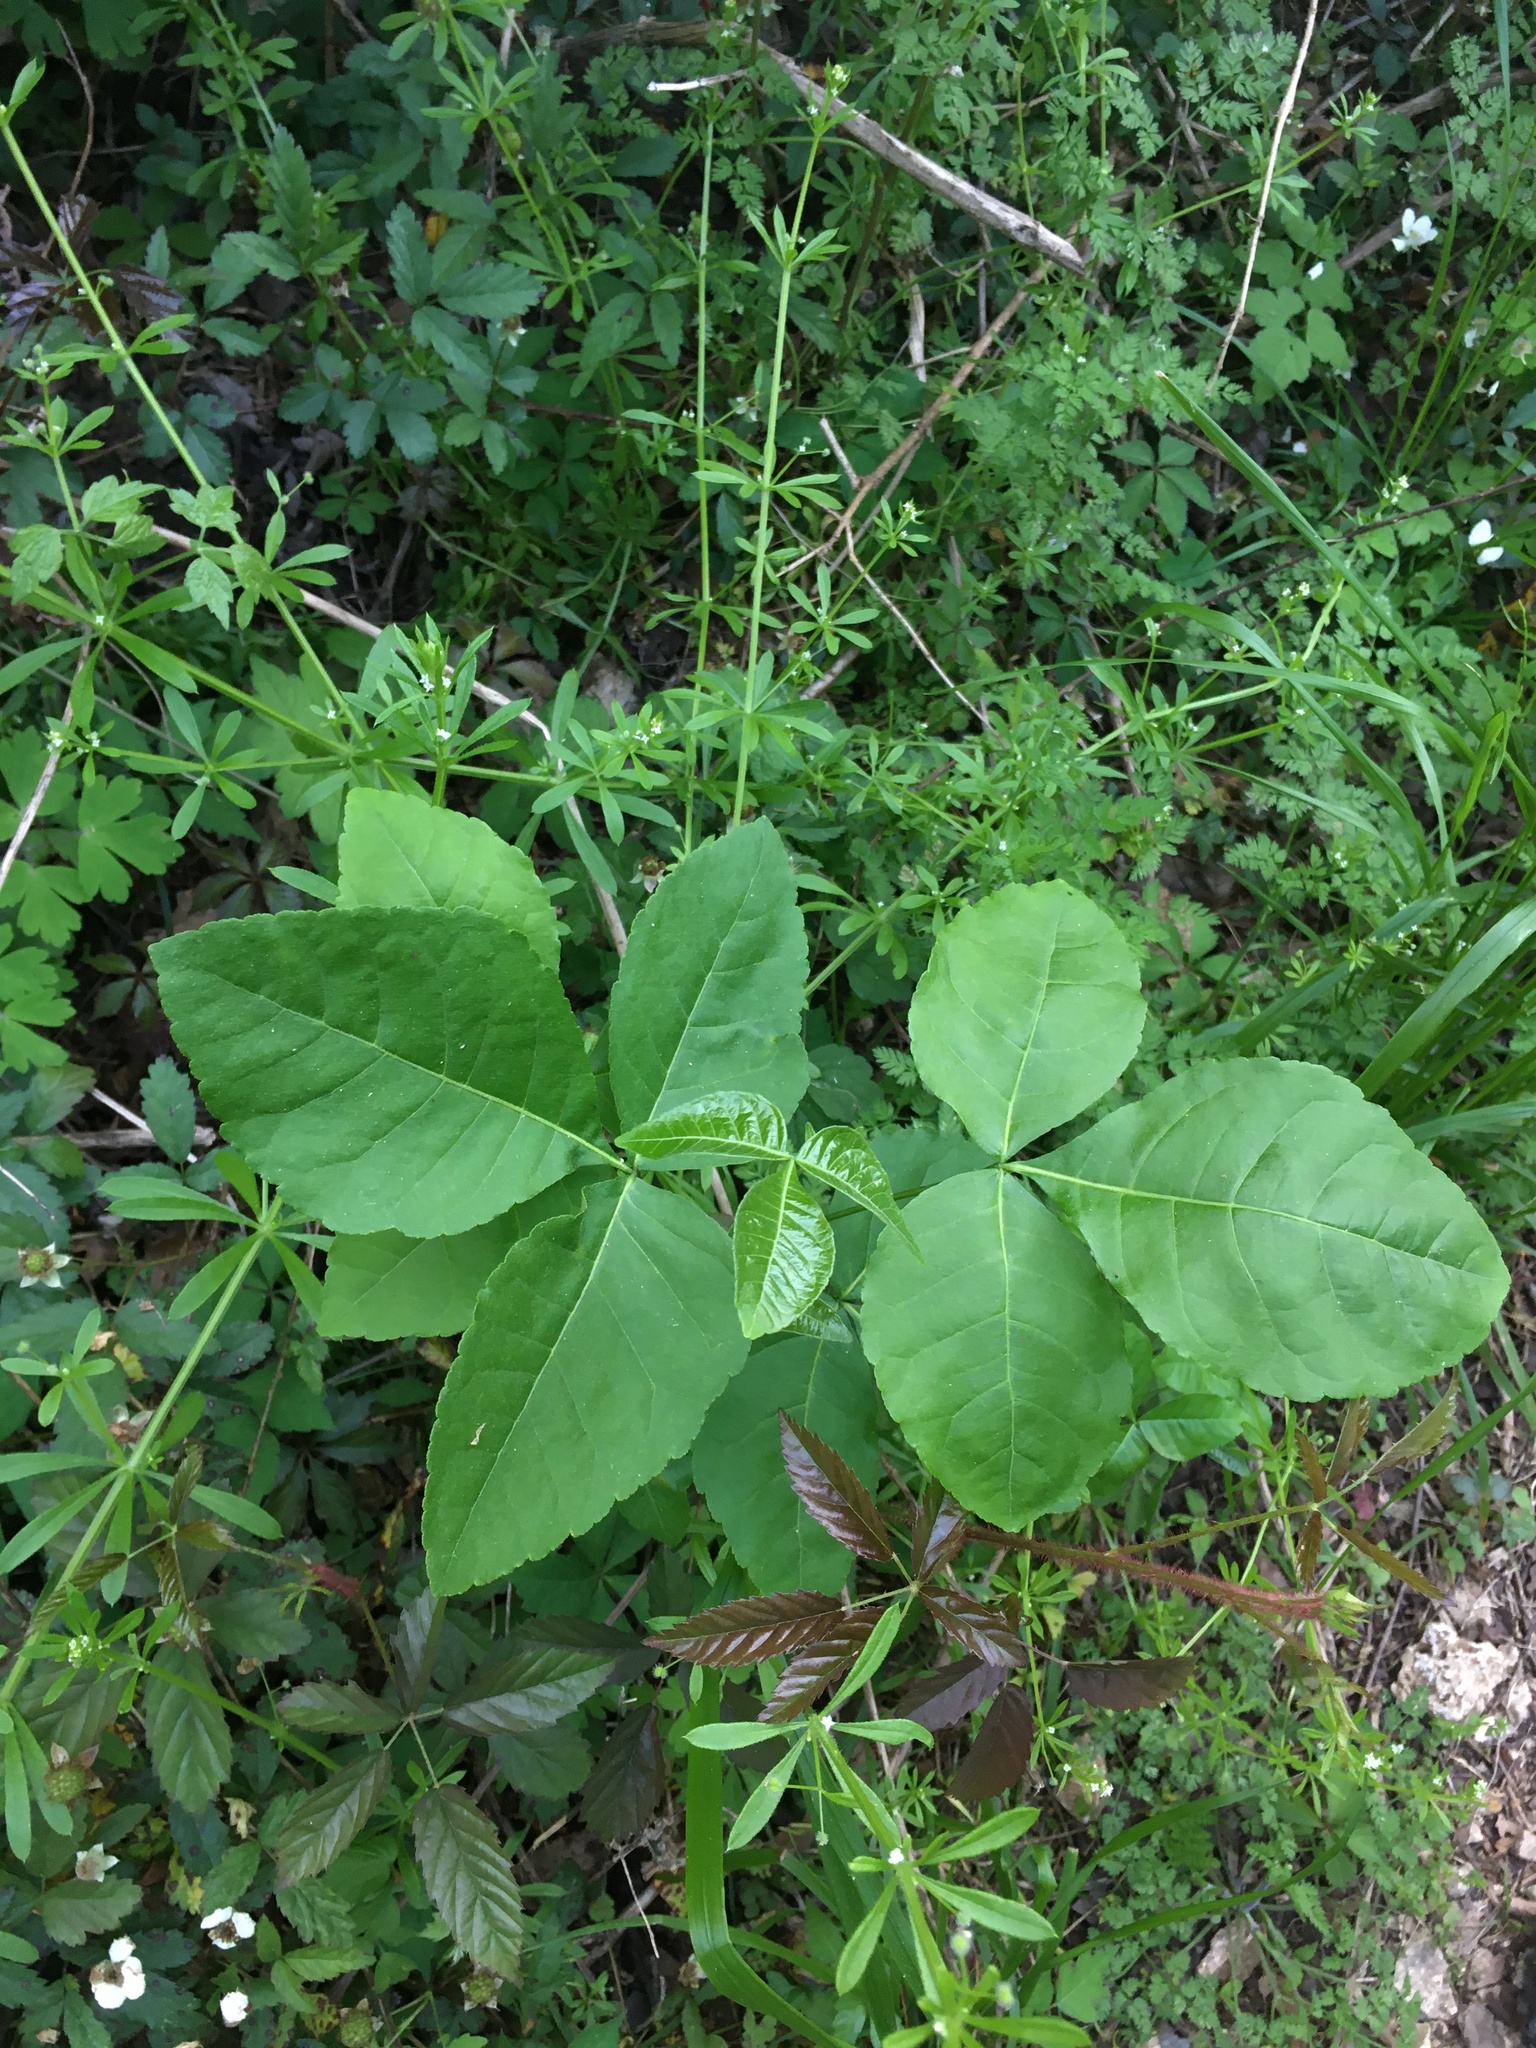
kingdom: Plantae
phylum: Tracheophyta
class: Magnoliopsida
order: Sapindales
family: Rutaceae
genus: Ptelea
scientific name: Ptelea trifoliata
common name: Common hop-tree
